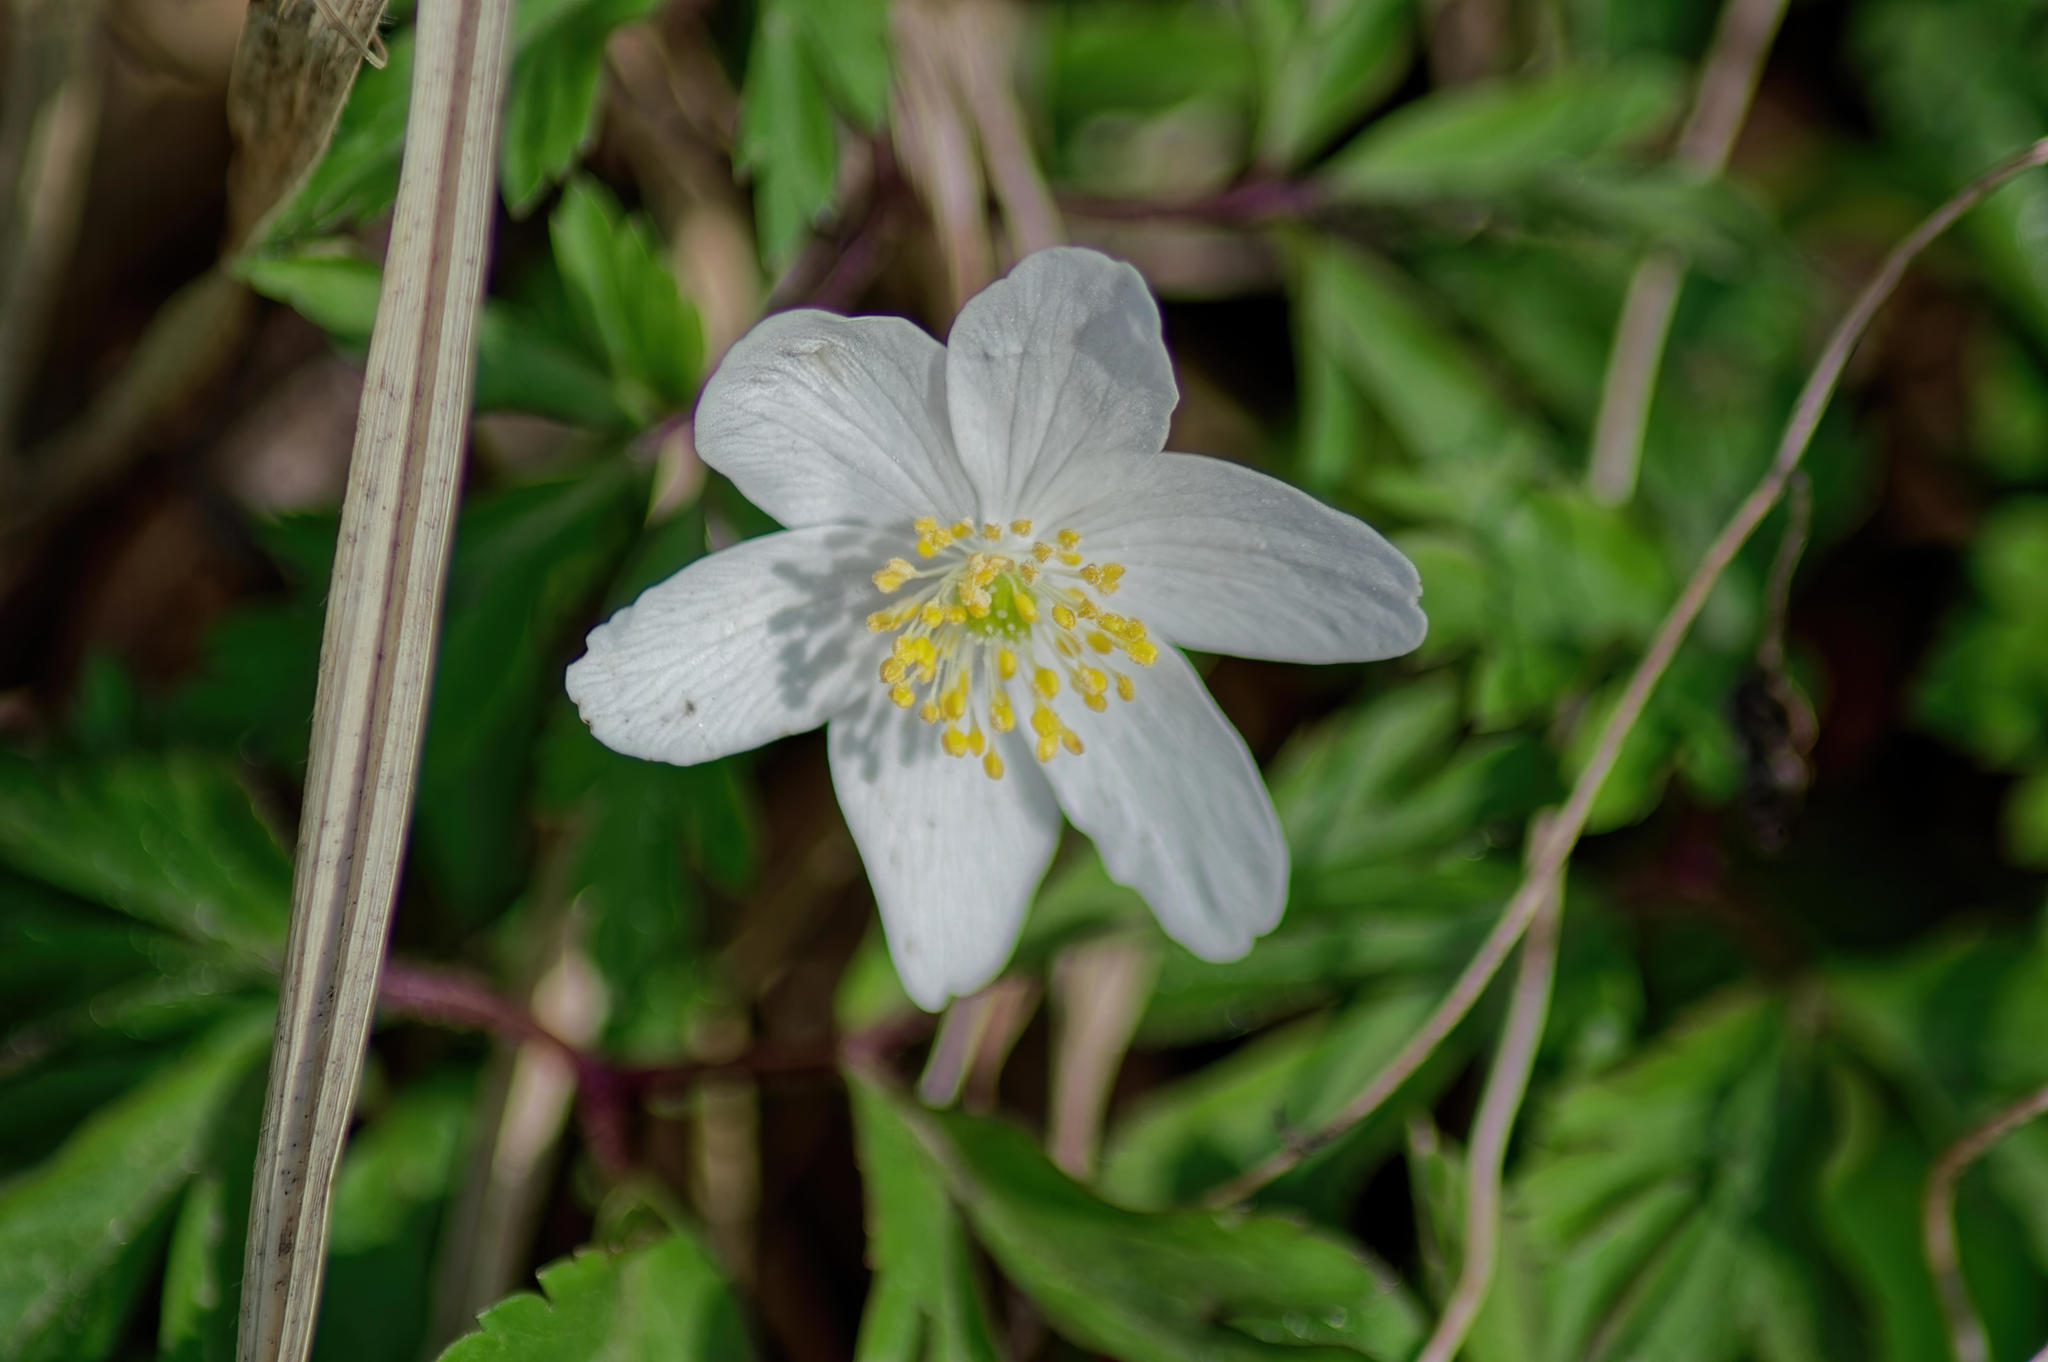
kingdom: Plantae
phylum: Tracheophyta
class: Magnoliopsida
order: Ranunculales
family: Ranunculaceae
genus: Anemone
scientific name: Anemone nemorosa
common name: Wood anemone
